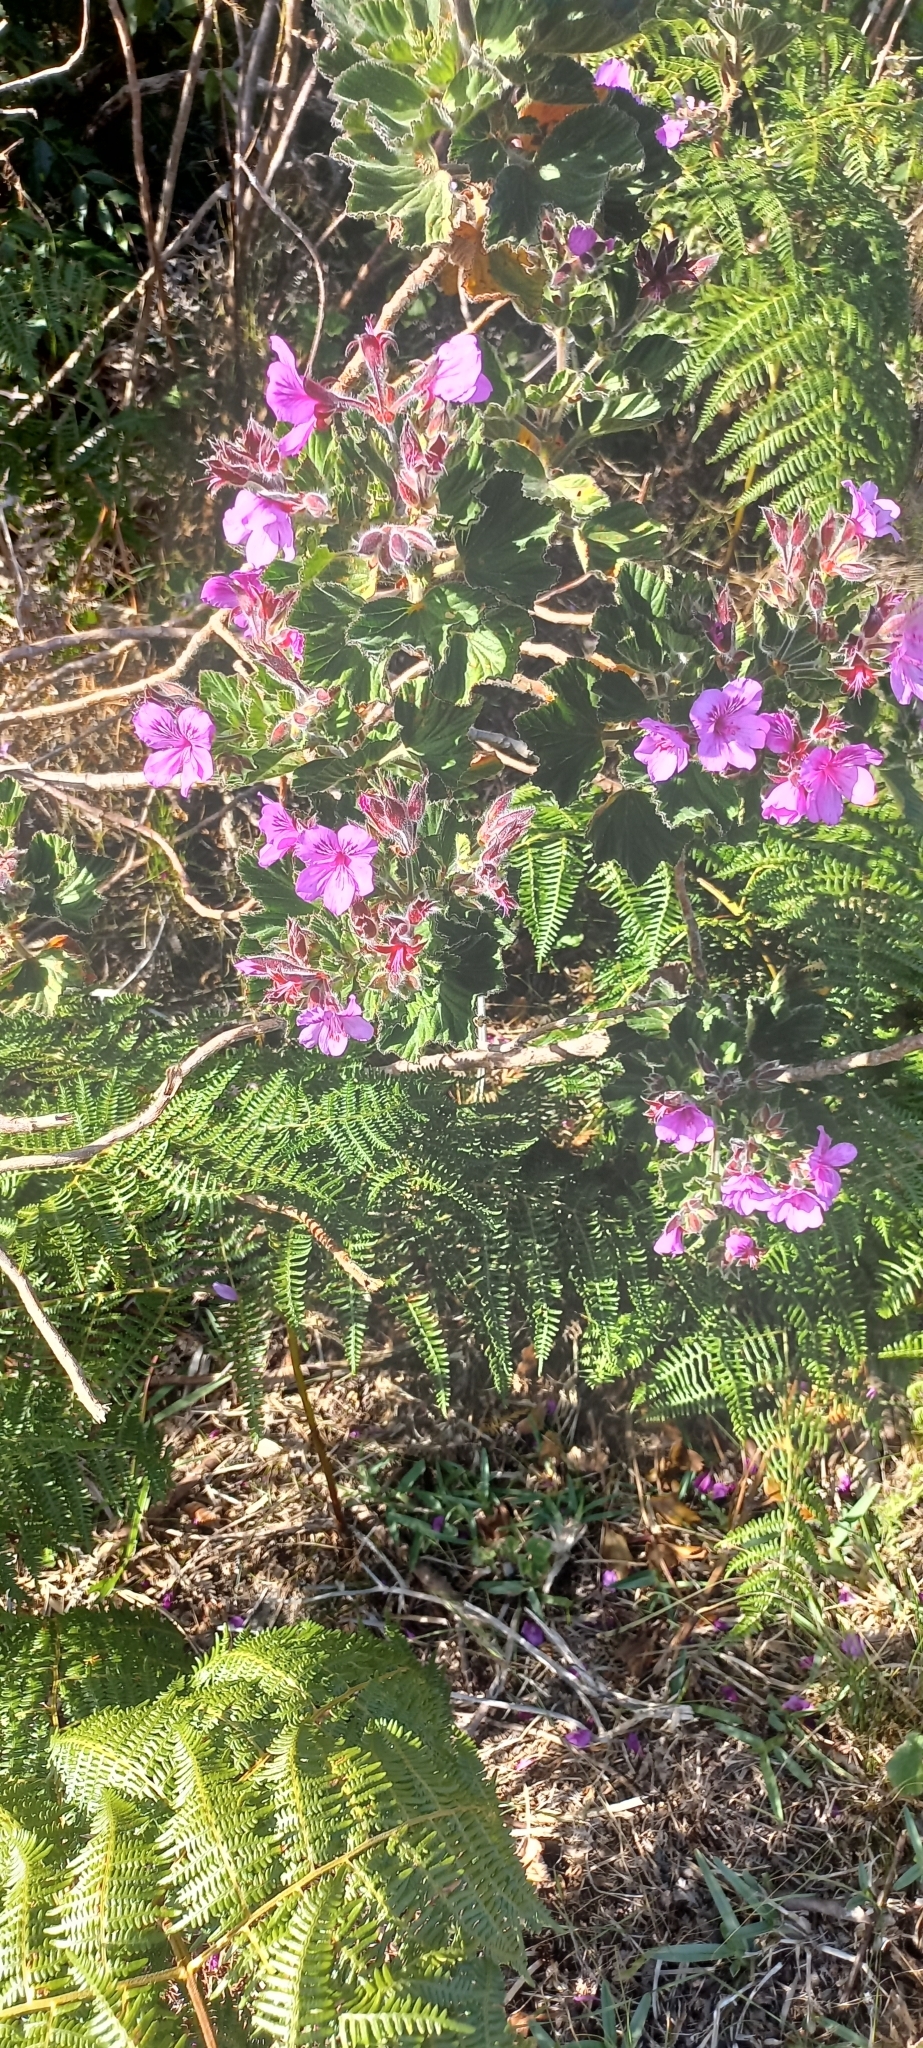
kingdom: Plantae
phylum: Tracheophyta
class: Magnoliopsida
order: Geraniales
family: Geraniaceae
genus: Pelargonium
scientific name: Pelargonium cucullatum
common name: Tree pelargonium
